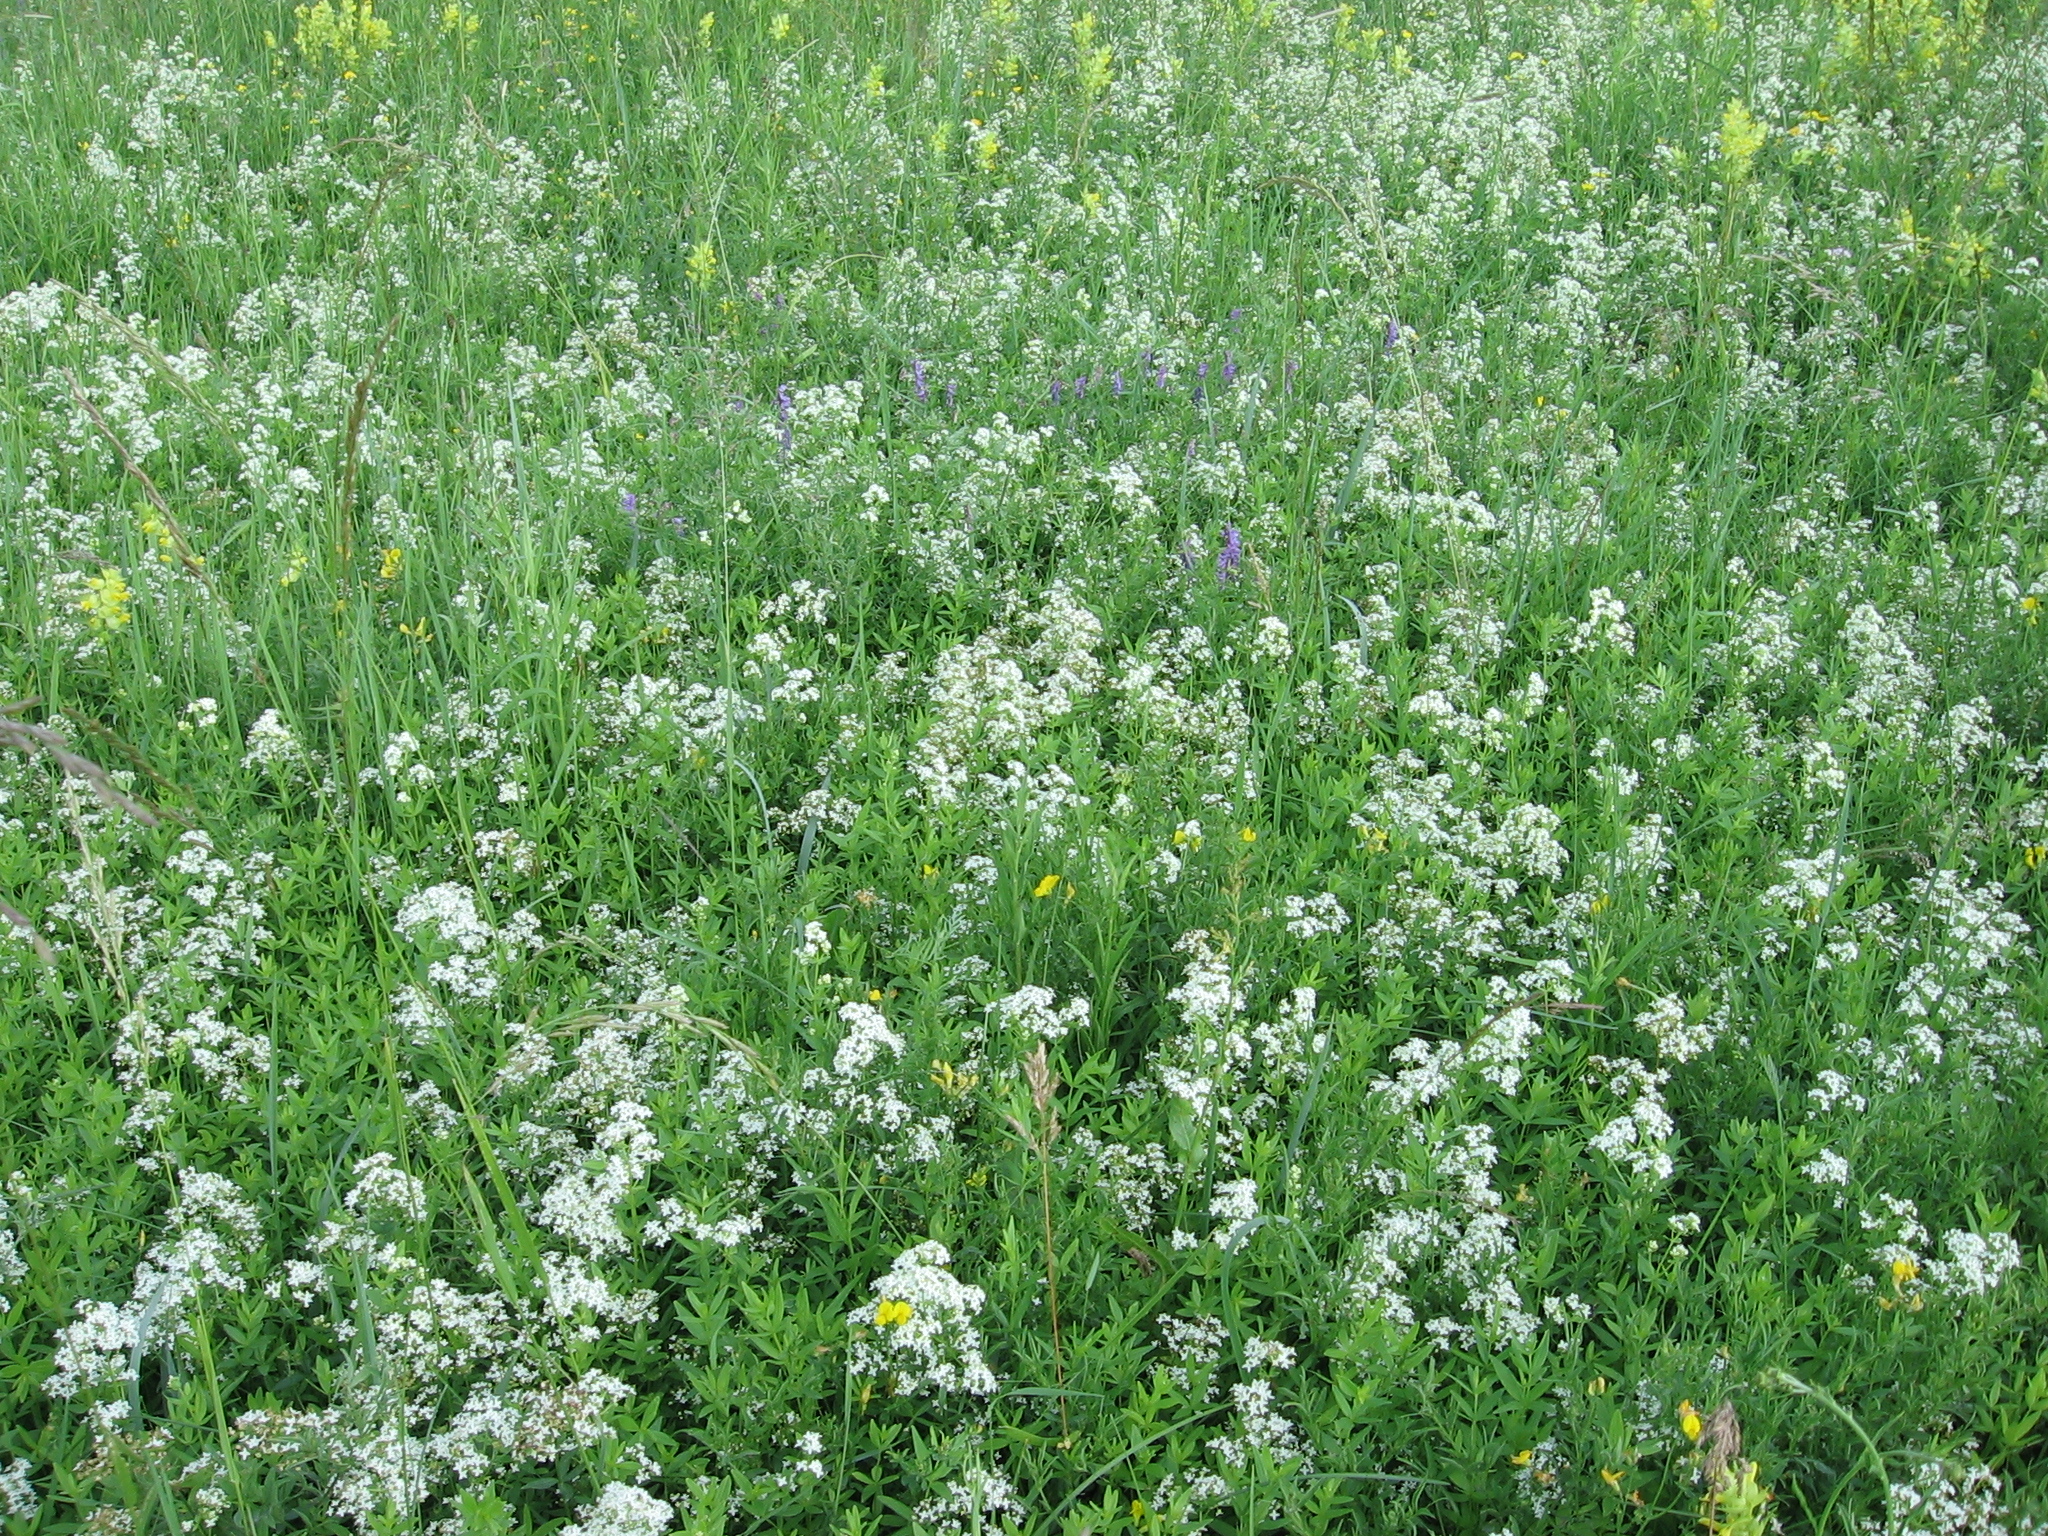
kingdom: Plantae
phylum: Tracheophyta
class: Magnoliopsida
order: Gentianales
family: Rubiaceae
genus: Galium
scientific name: Galium boreale
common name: Northern bedstraw
